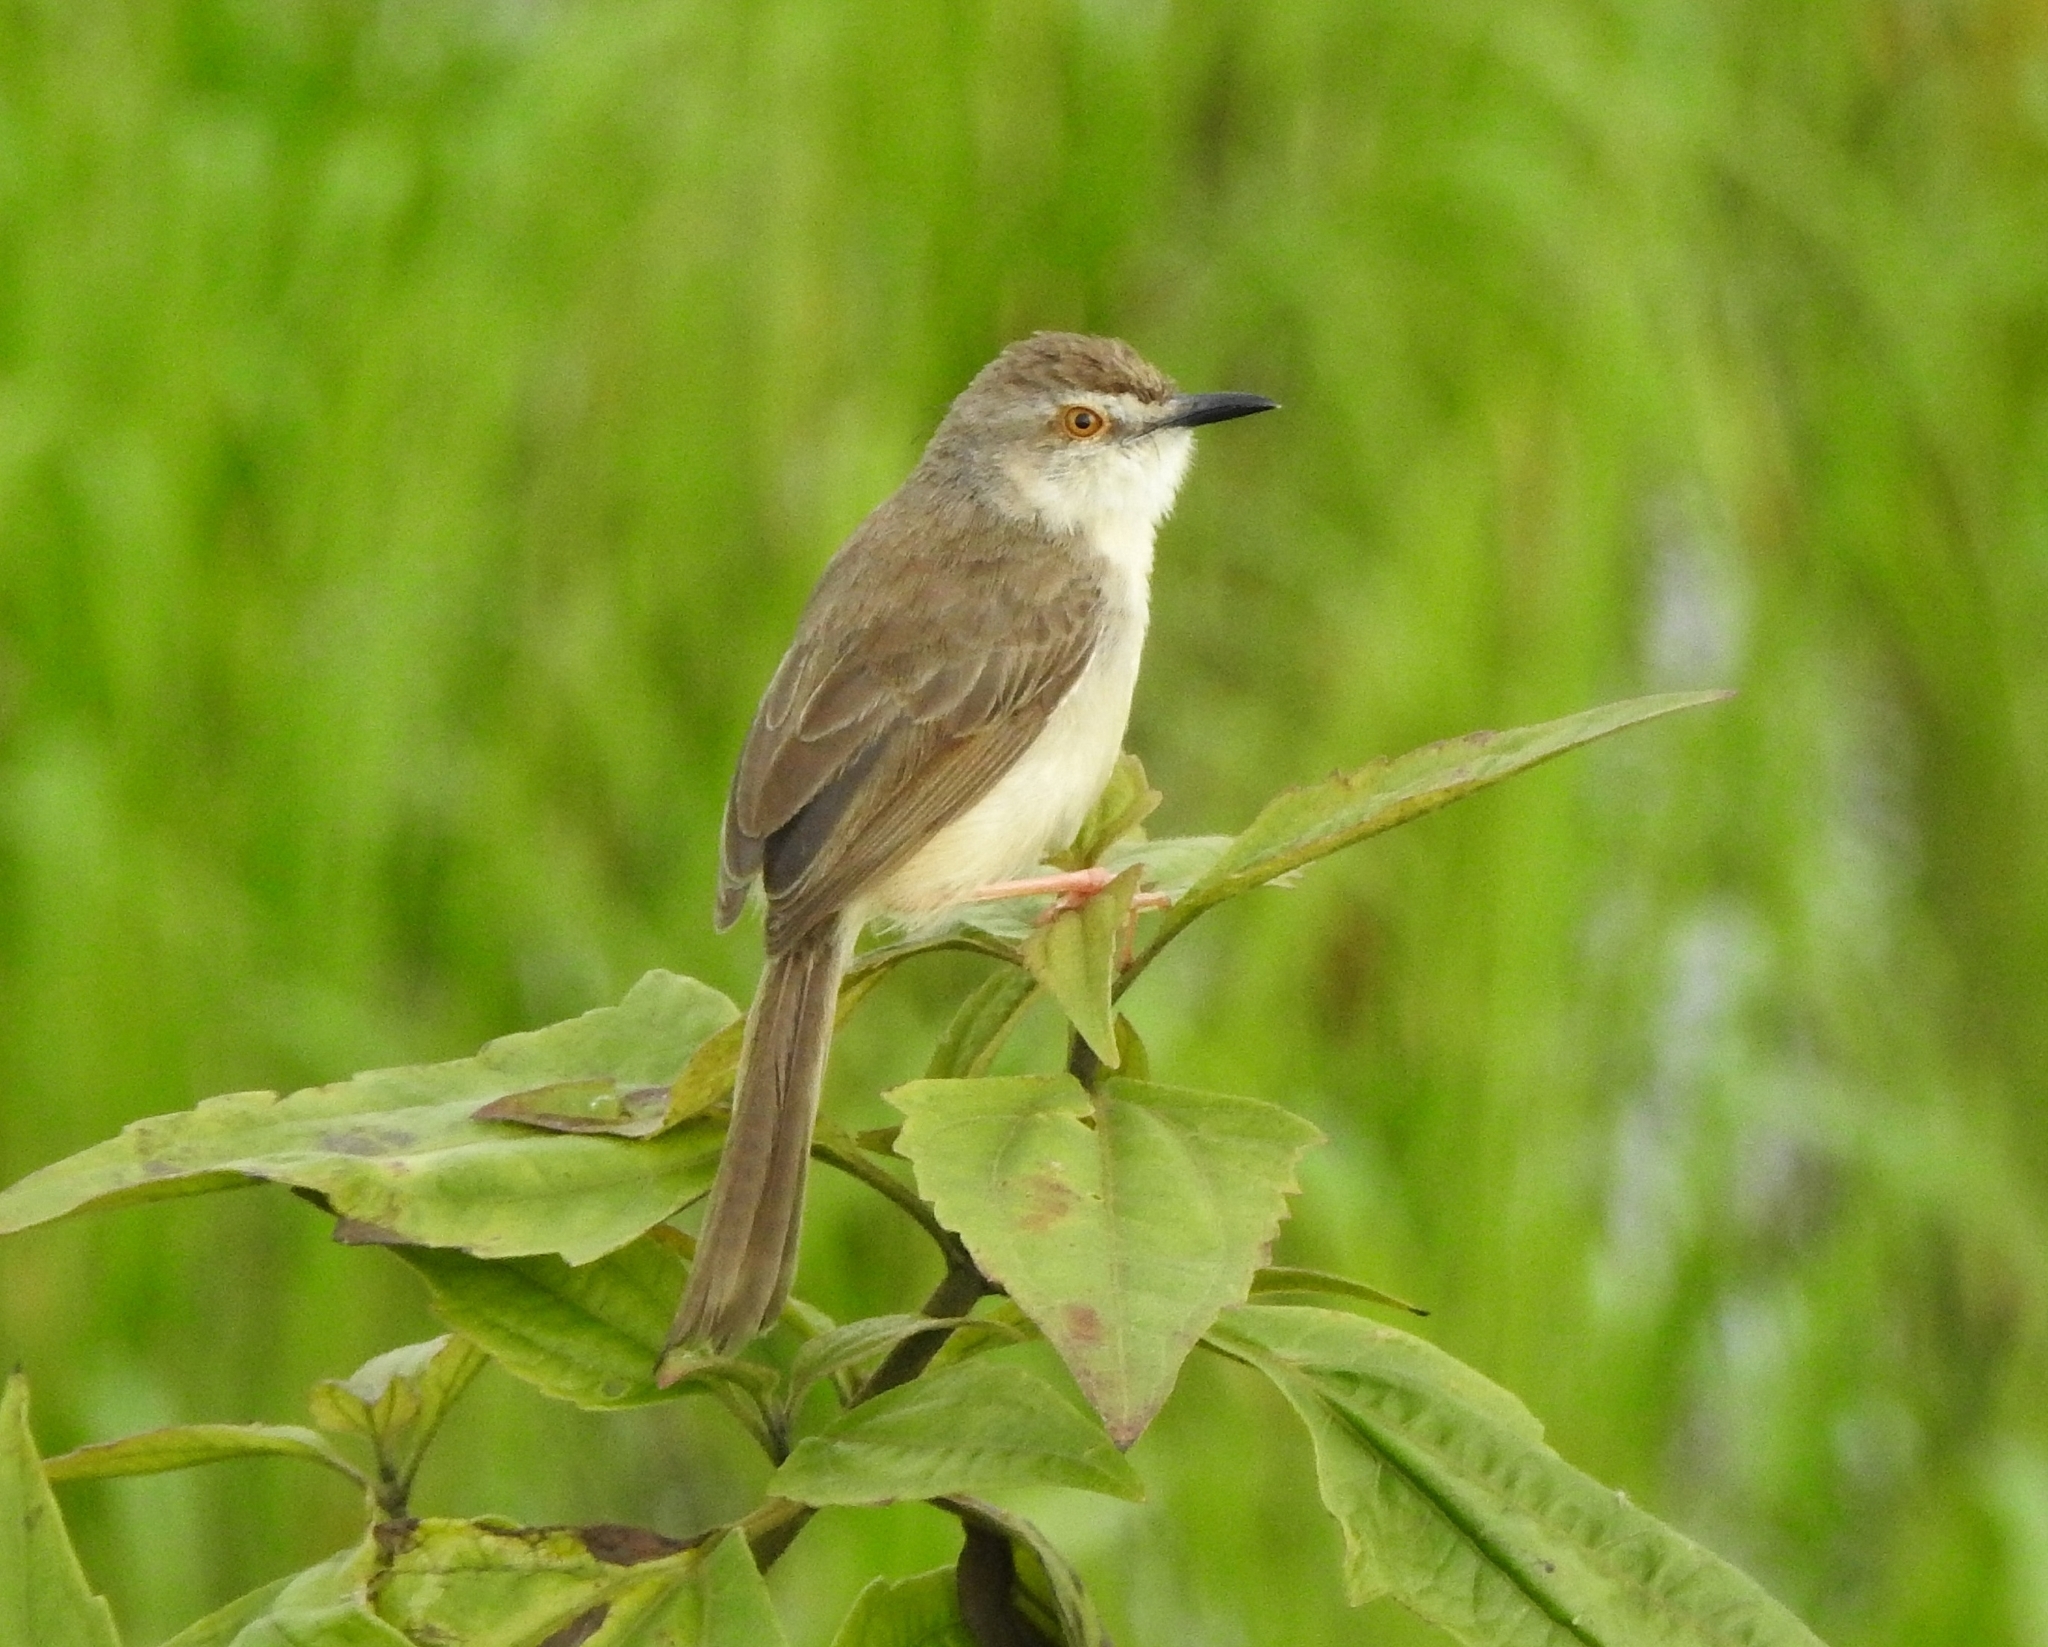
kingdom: Animalia
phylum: Chordata
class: Aves
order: Passeriformes
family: Cisticolidae
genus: Prinia
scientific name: Prinia inornata
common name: Plain prinia
